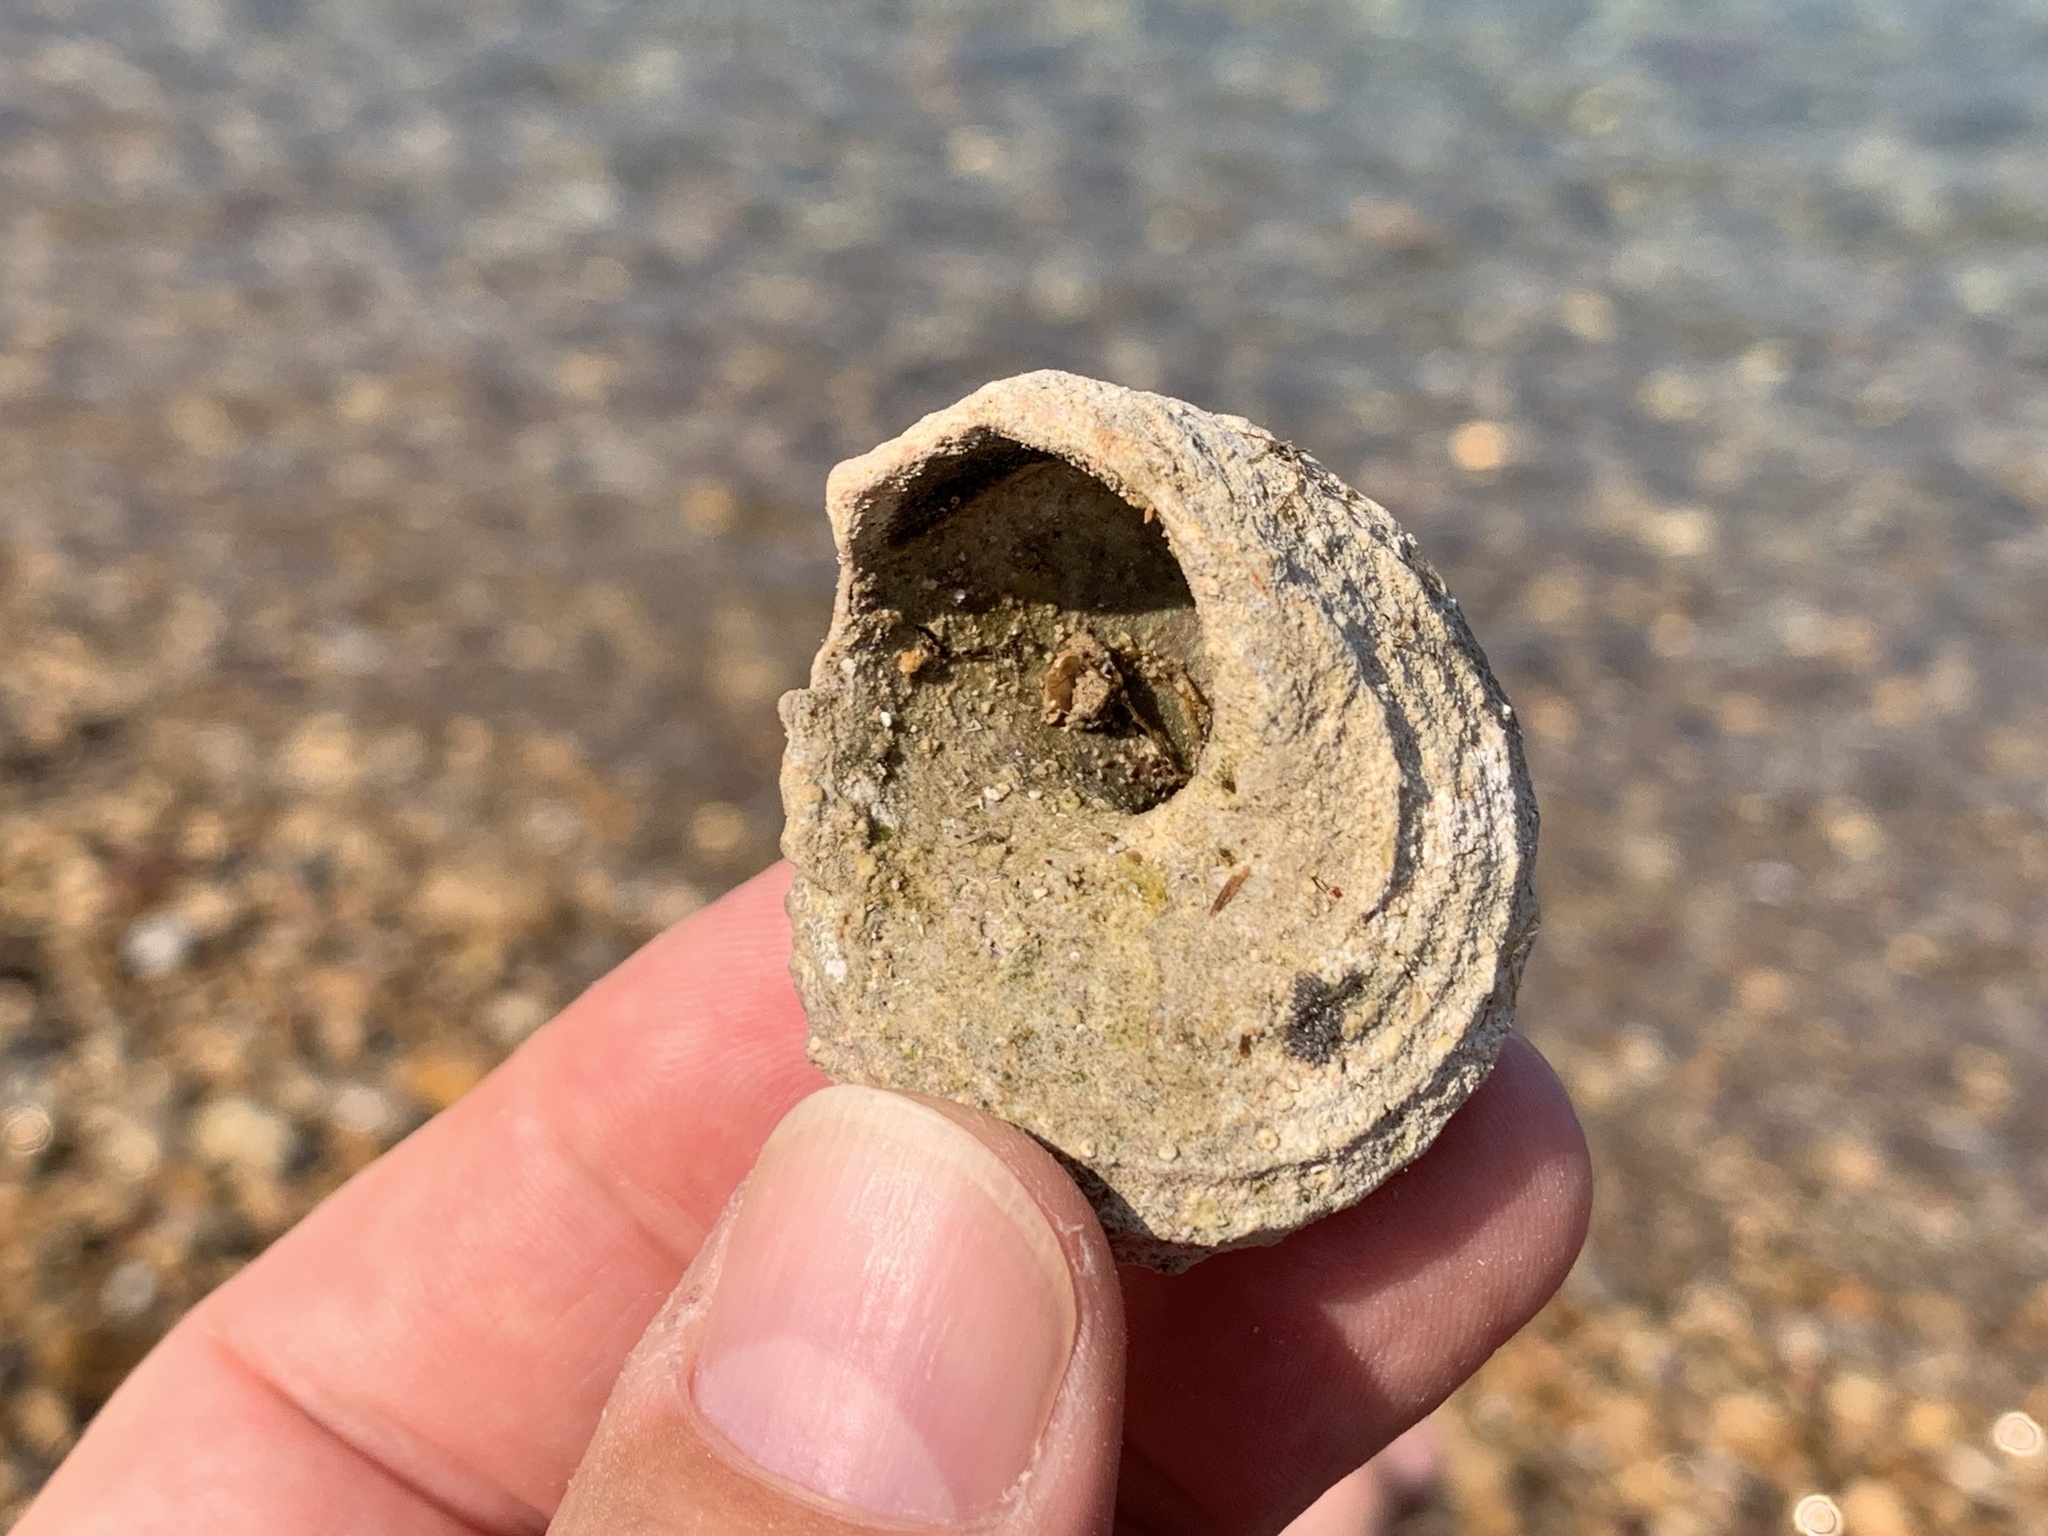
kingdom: Animalia
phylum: Mollusca
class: Gastropoda
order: Trochida
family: Turbinidae
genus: Bolma
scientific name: Bolma rugosa
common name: Rough star shell
